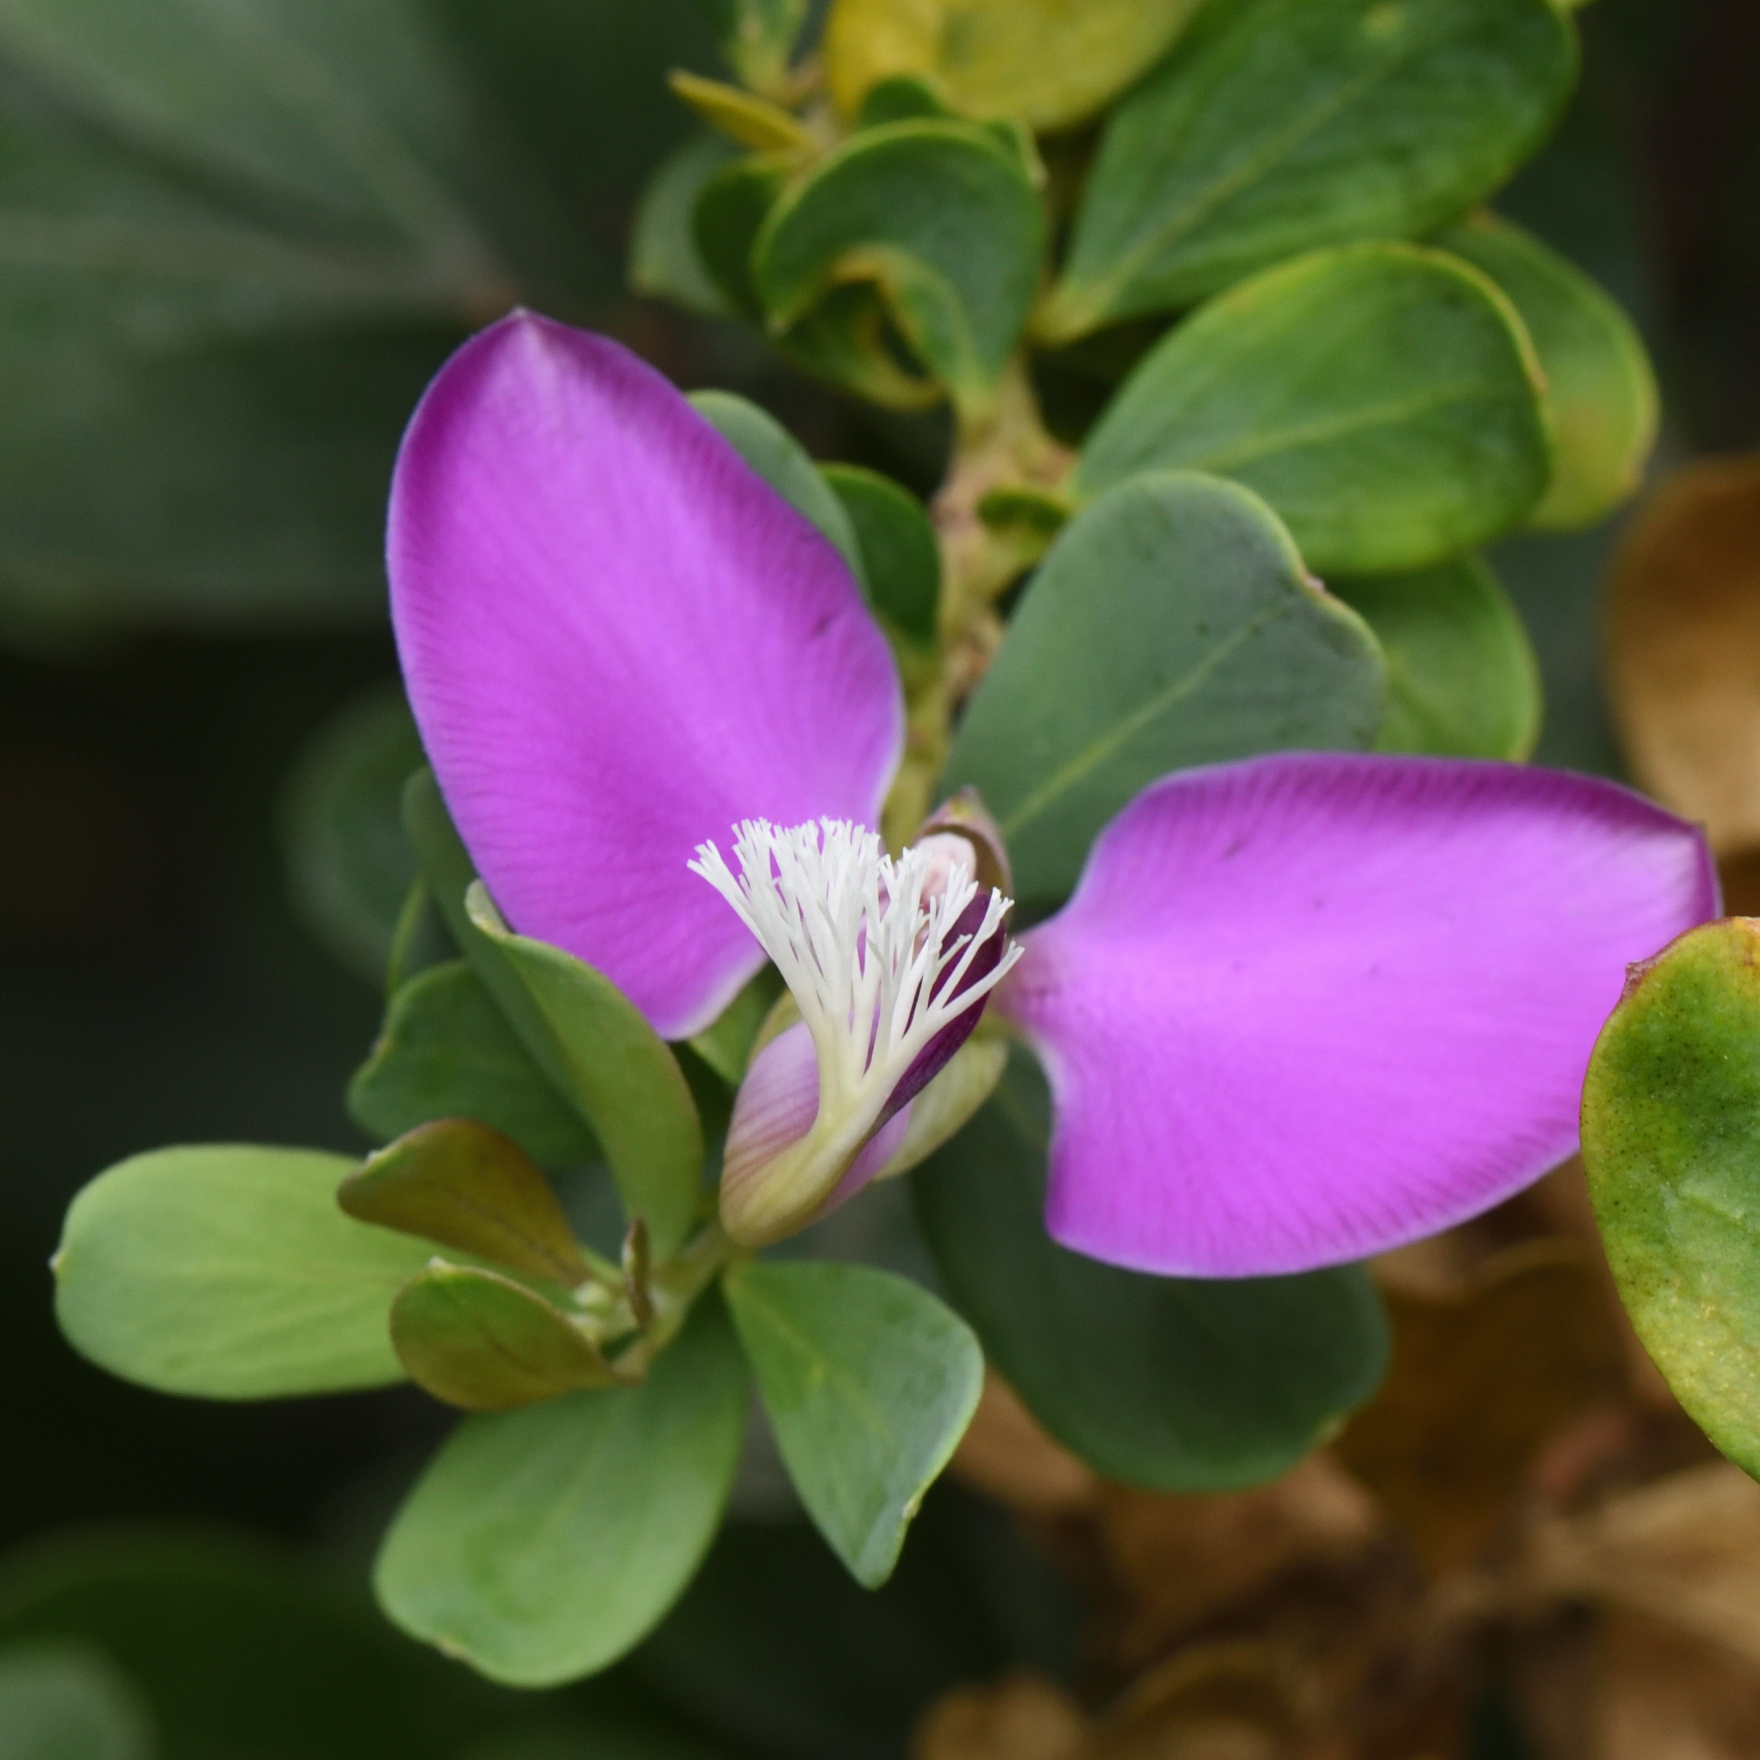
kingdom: Plantae
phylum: Tracheophyta
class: Magnoliopsida
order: Fabales
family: Polygalaceae
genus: Polygala
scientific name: Polygala myrtifolia
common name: Myrtle-leaf milkwort
